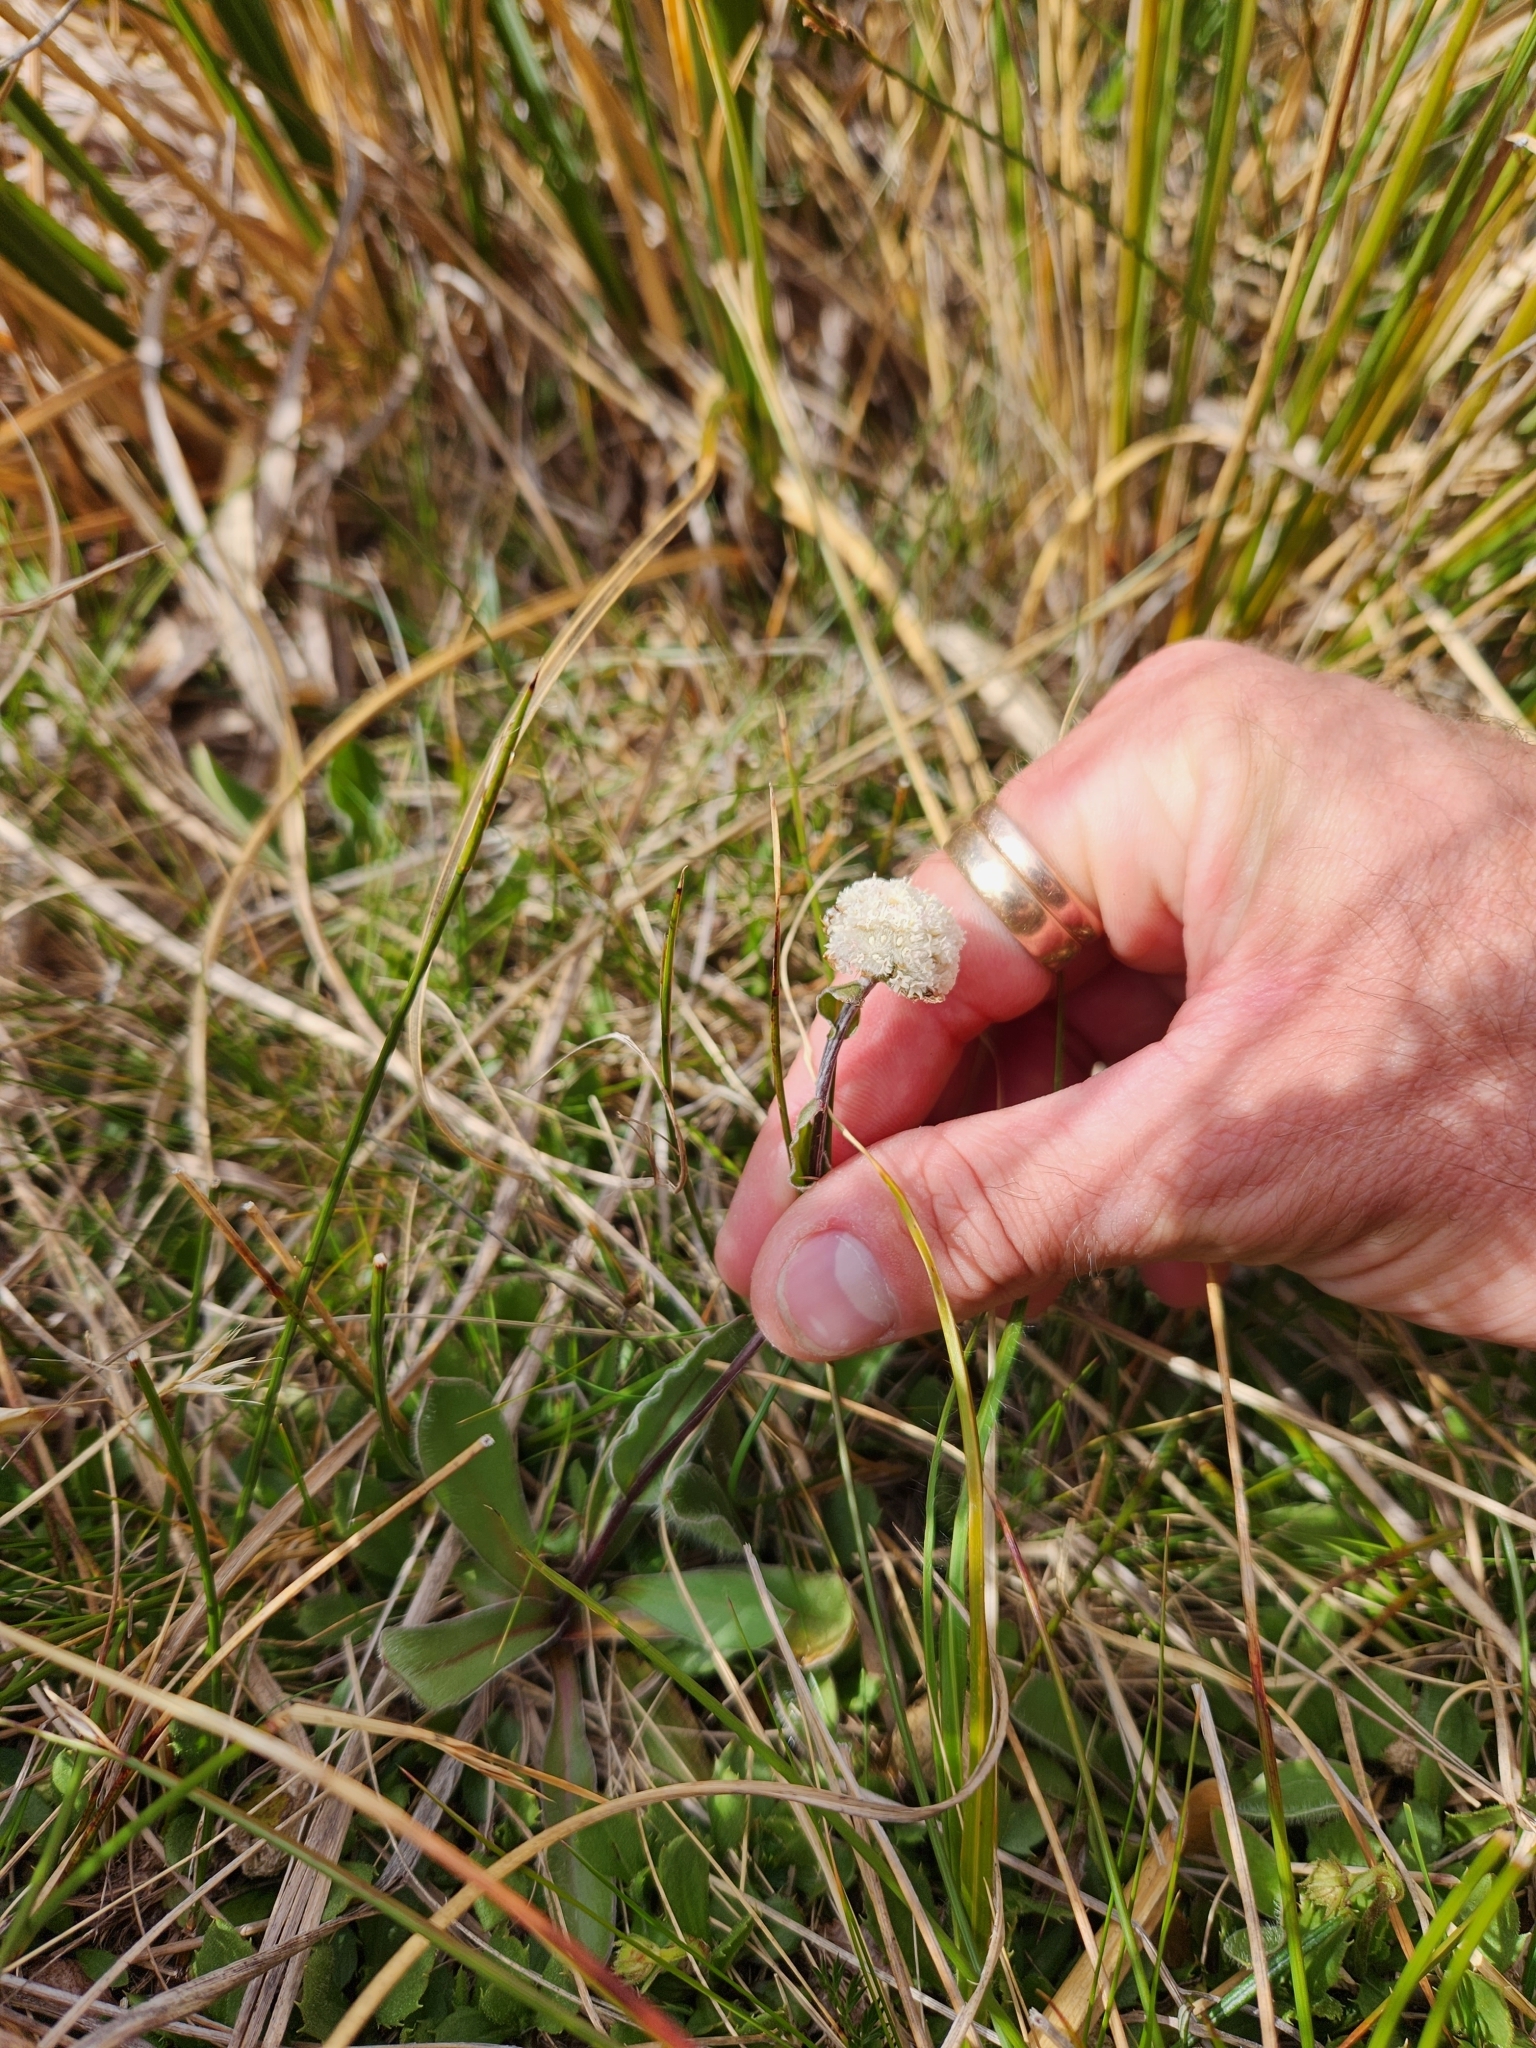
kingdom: Plantae
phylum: Tracheophyta
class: Magnoliopsida
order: Asterales
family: Asteraceae
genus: Craspedia
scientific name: Craspedia uniflora
